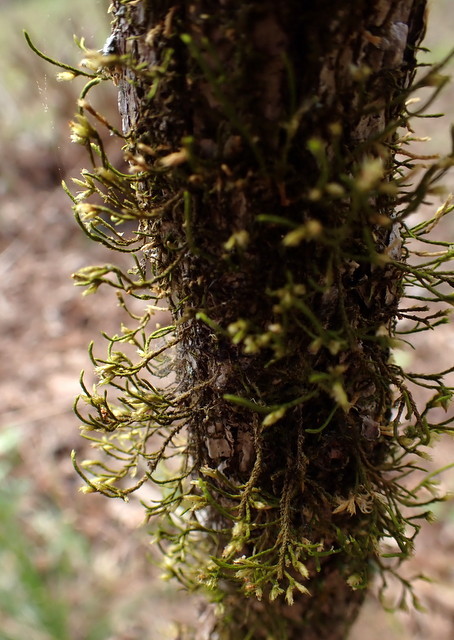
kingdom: Plantae
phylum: Bryophyta
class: Bryopsida
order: Hypnales
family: Cryphaeaceae
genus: Cryphaea
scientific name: Cryphaea glomerata
